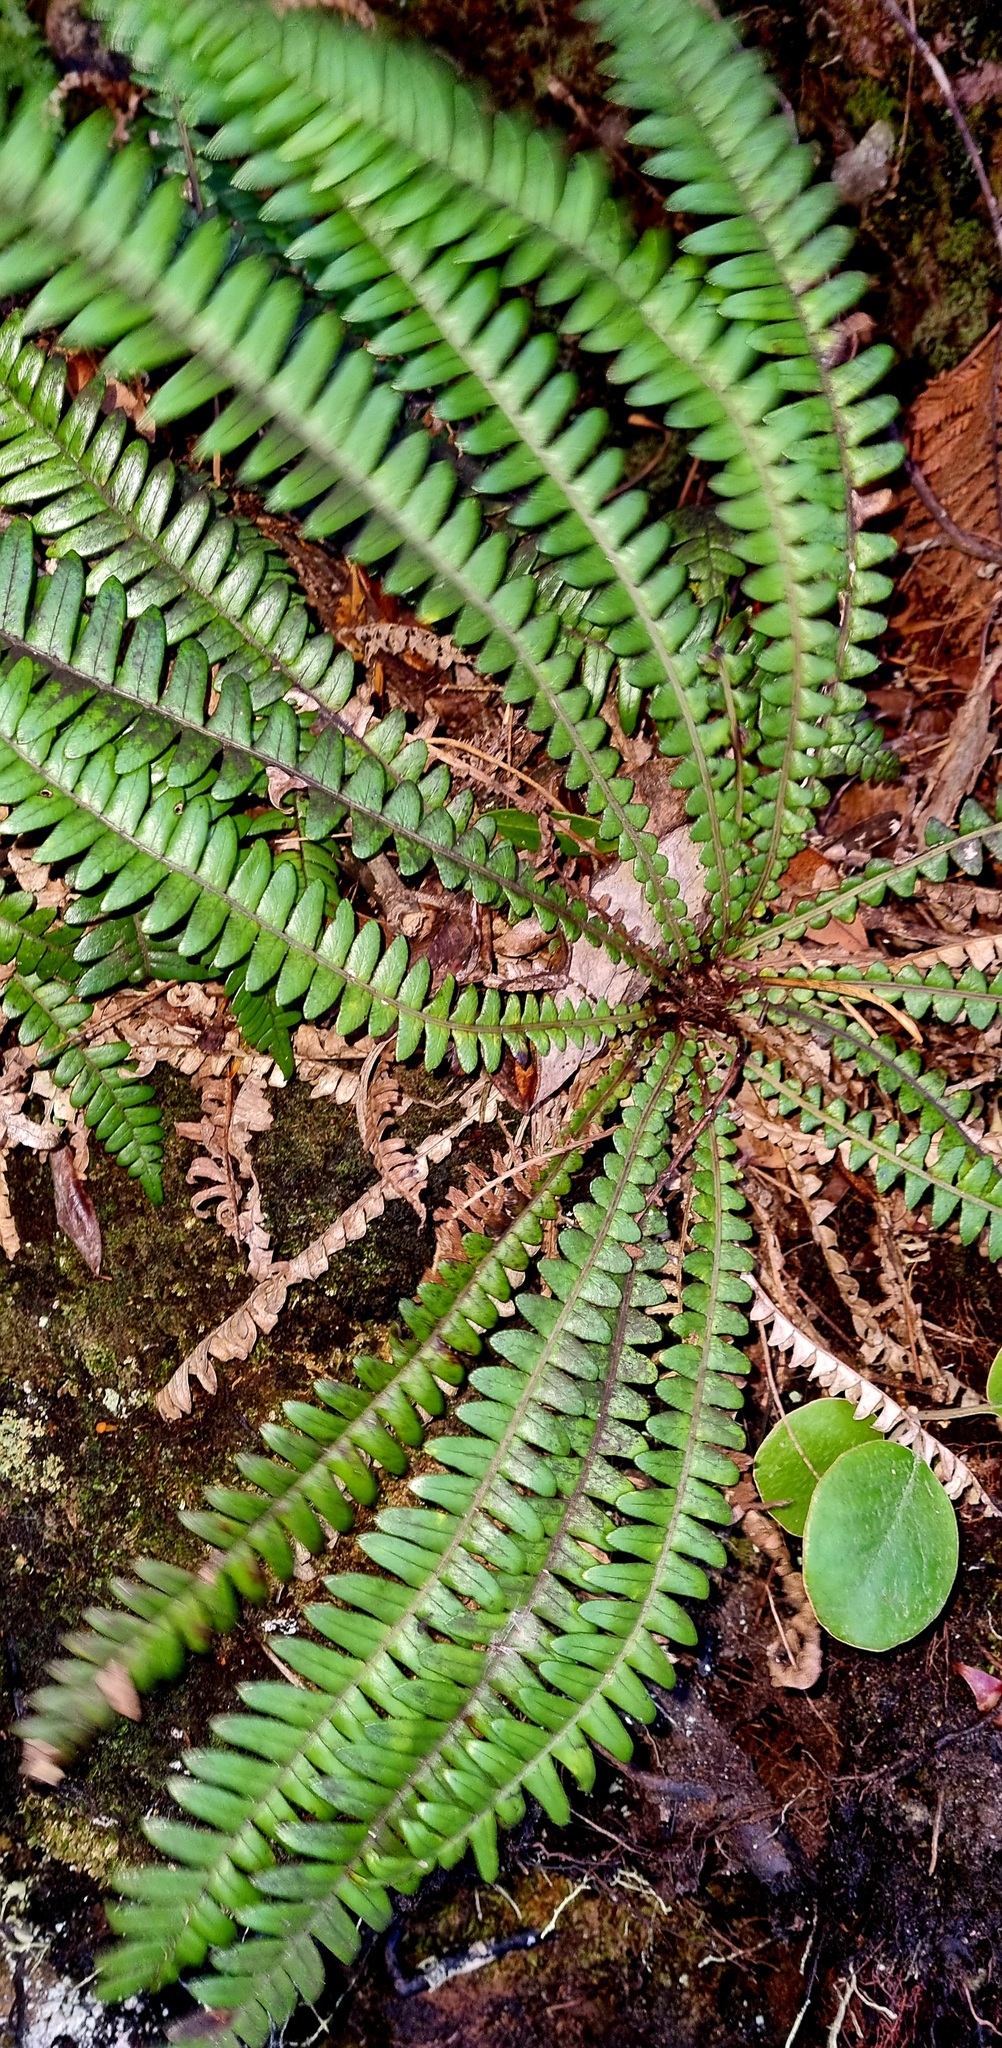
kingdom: Plantae
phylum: Tracheophyta
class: Polypodiopsida
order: Polypodiales
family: Blechnaceae
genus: Austroblechnum
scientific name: Austroblechnum durum
